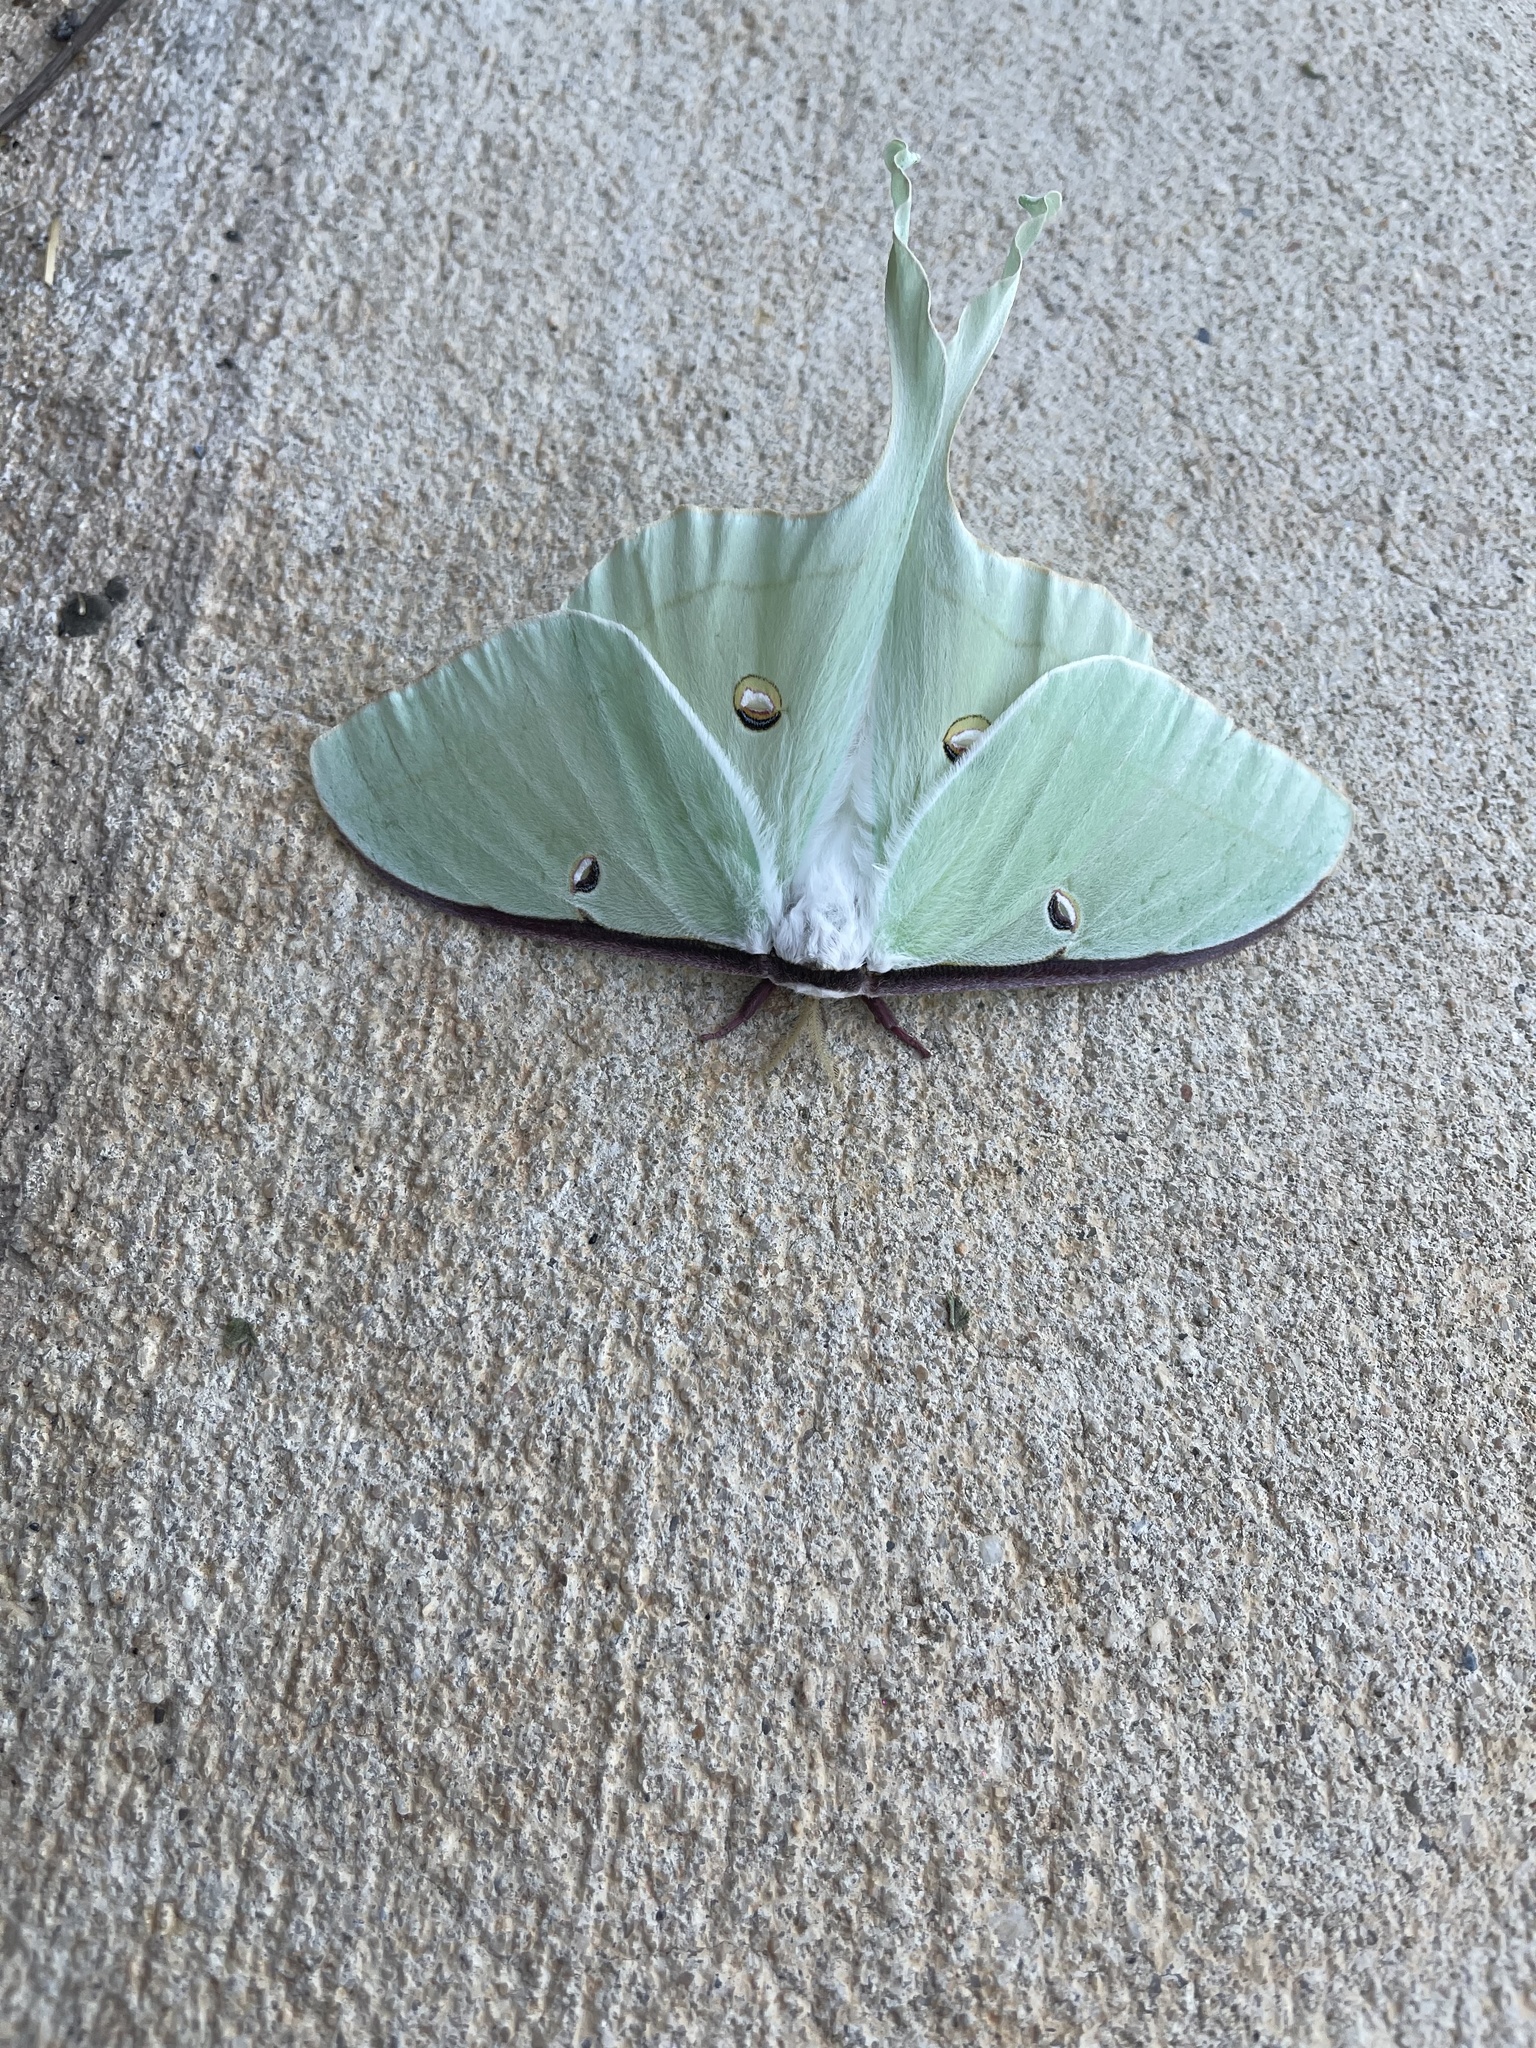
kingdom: Animalia
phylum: Arthropoda
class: Insecta
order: Lepidoptera
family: Saturniidae
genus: Actias
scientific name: Actias luna
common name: Luna moth
